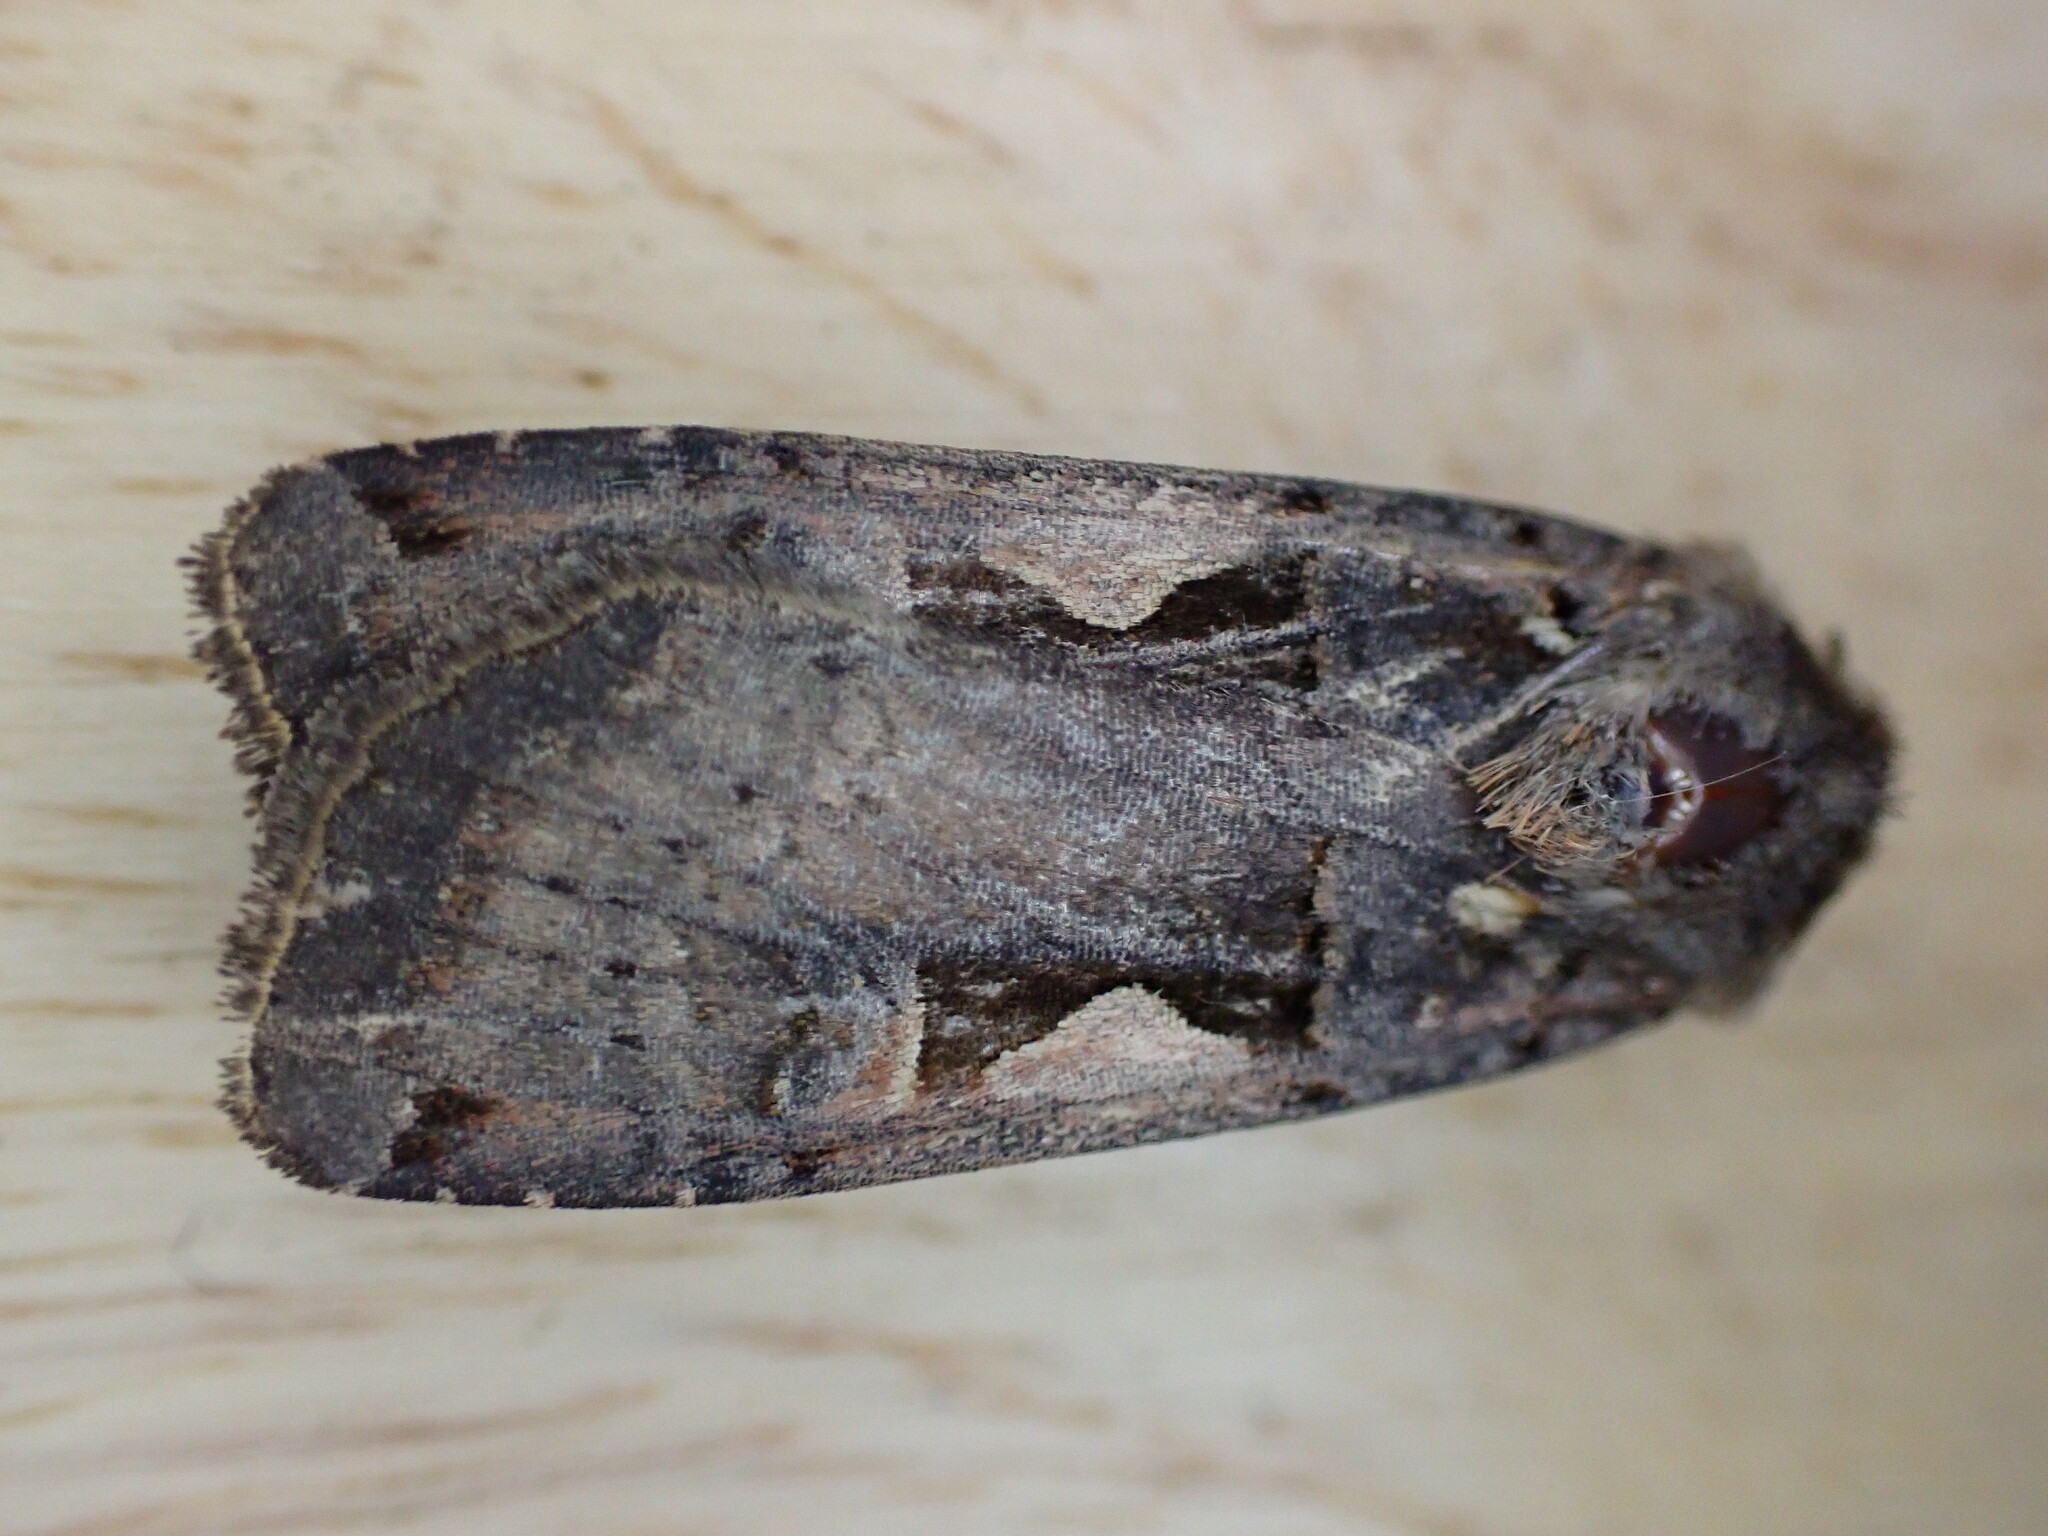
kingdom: Animalia
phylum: Arthropoda
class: Insecta
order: Lepidoptera
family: Noctuidae
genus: Xestia
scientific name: Xestia c-nigrum
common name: Setaceous hebrew character
